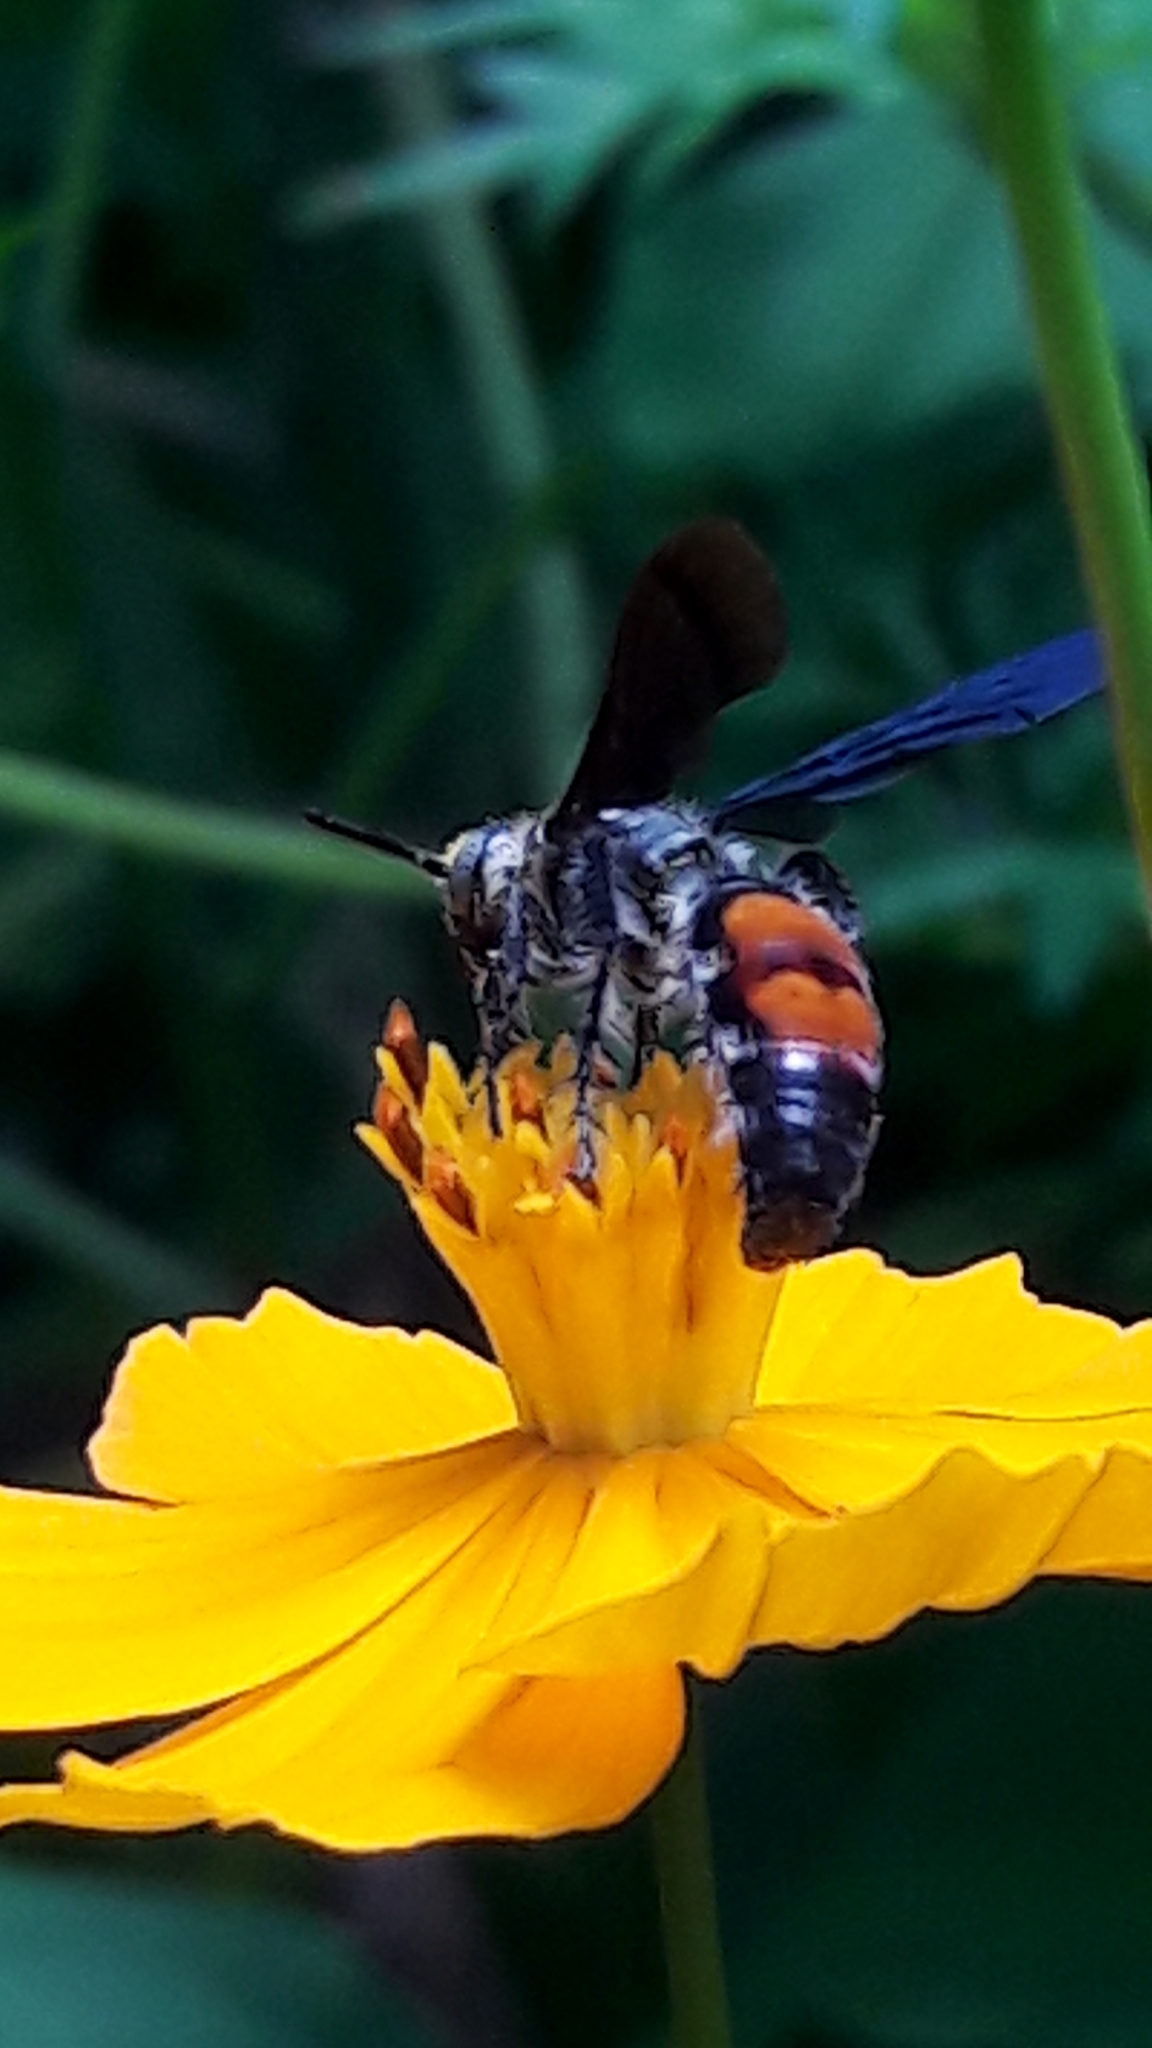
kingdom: Animalia
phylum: Arthropoda
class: Insecta
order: Hymenoptera
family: Scoliidae
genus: Dielis
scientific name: Dielis dorsata
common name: Scoliid wasp
